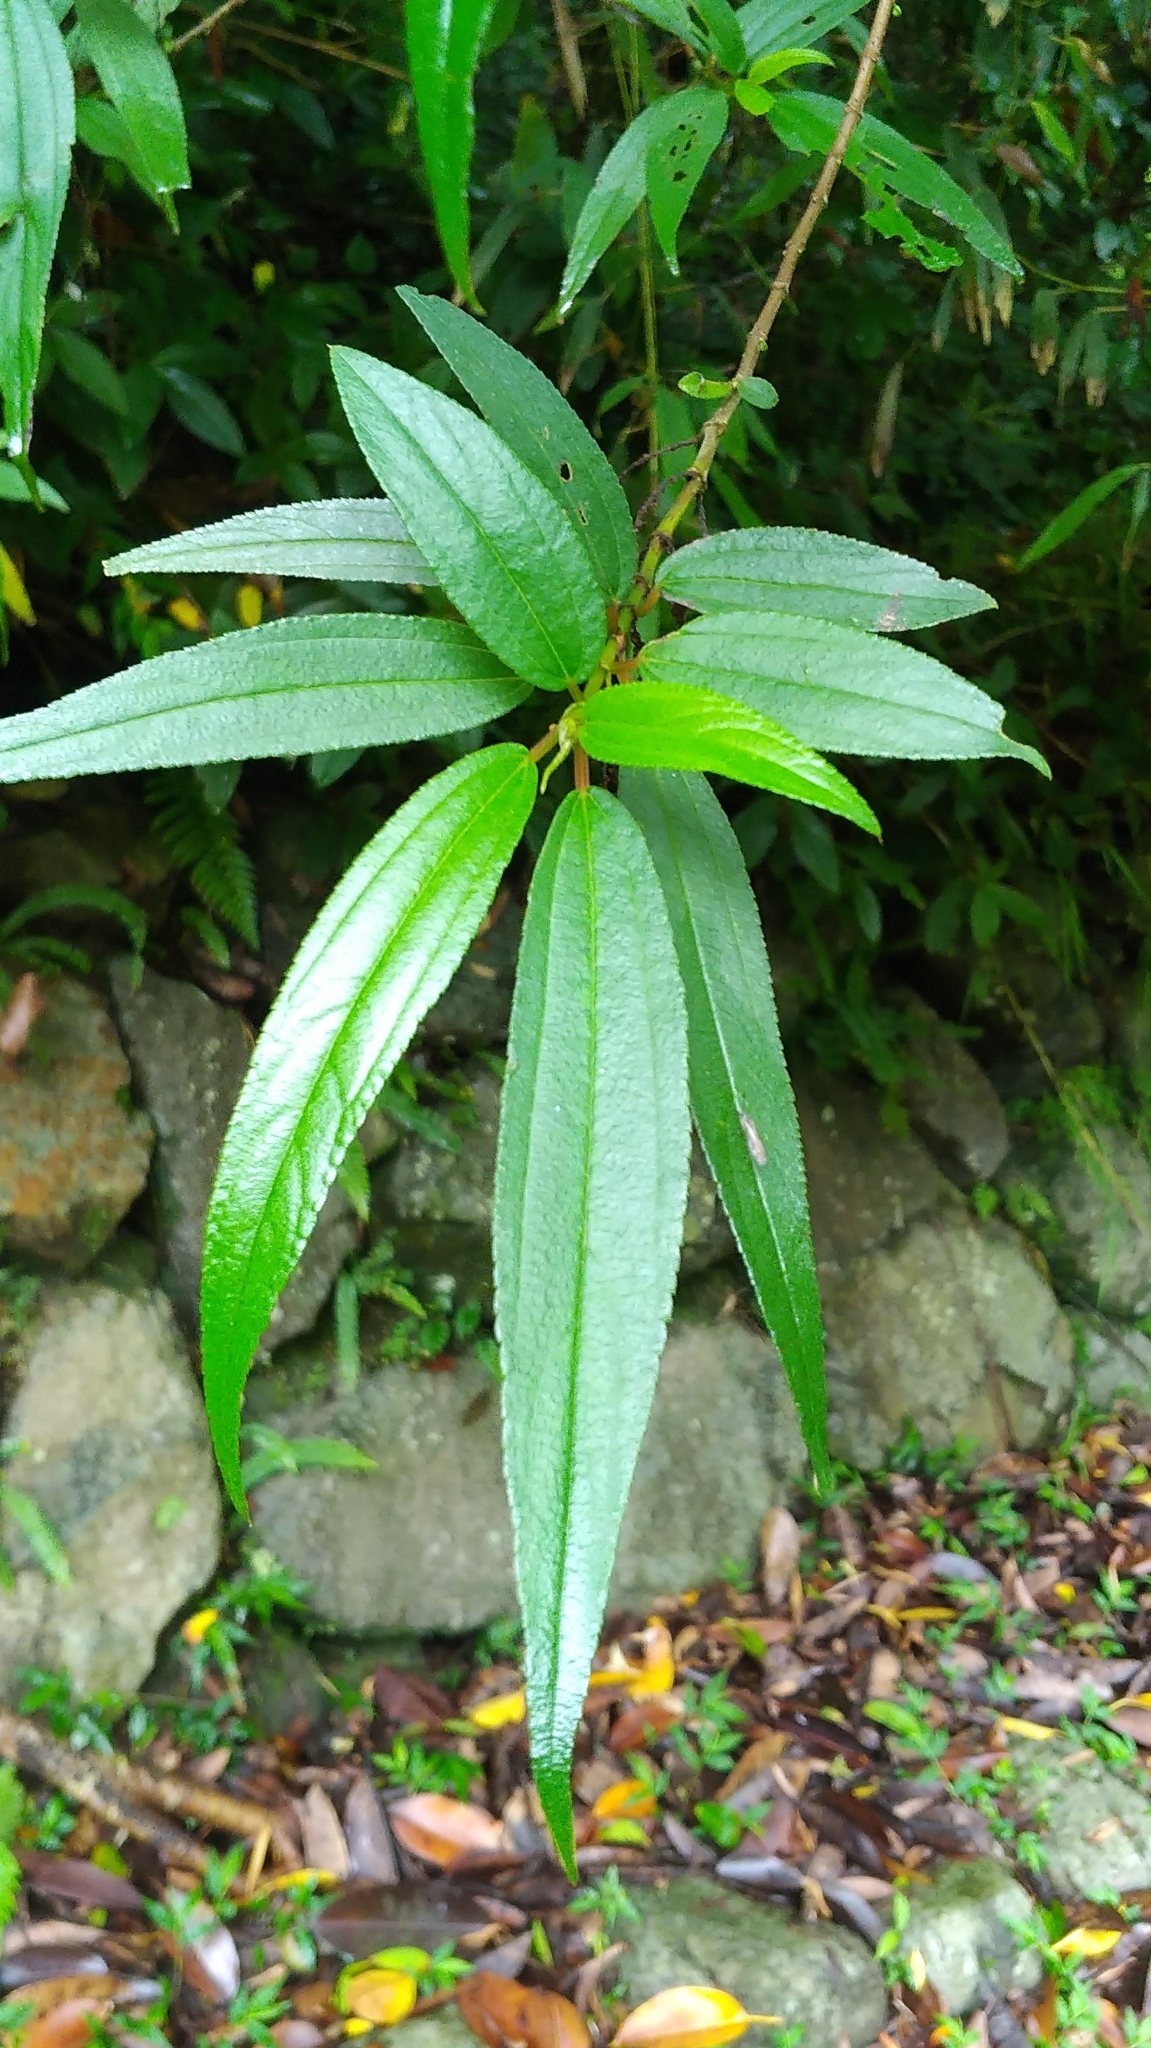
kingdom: Plantae
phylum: Tracheophyta
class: Magnoliopsida
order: Rosales
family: Urticaceae
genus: Boehmeria
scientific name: Boehmeria densiflora
